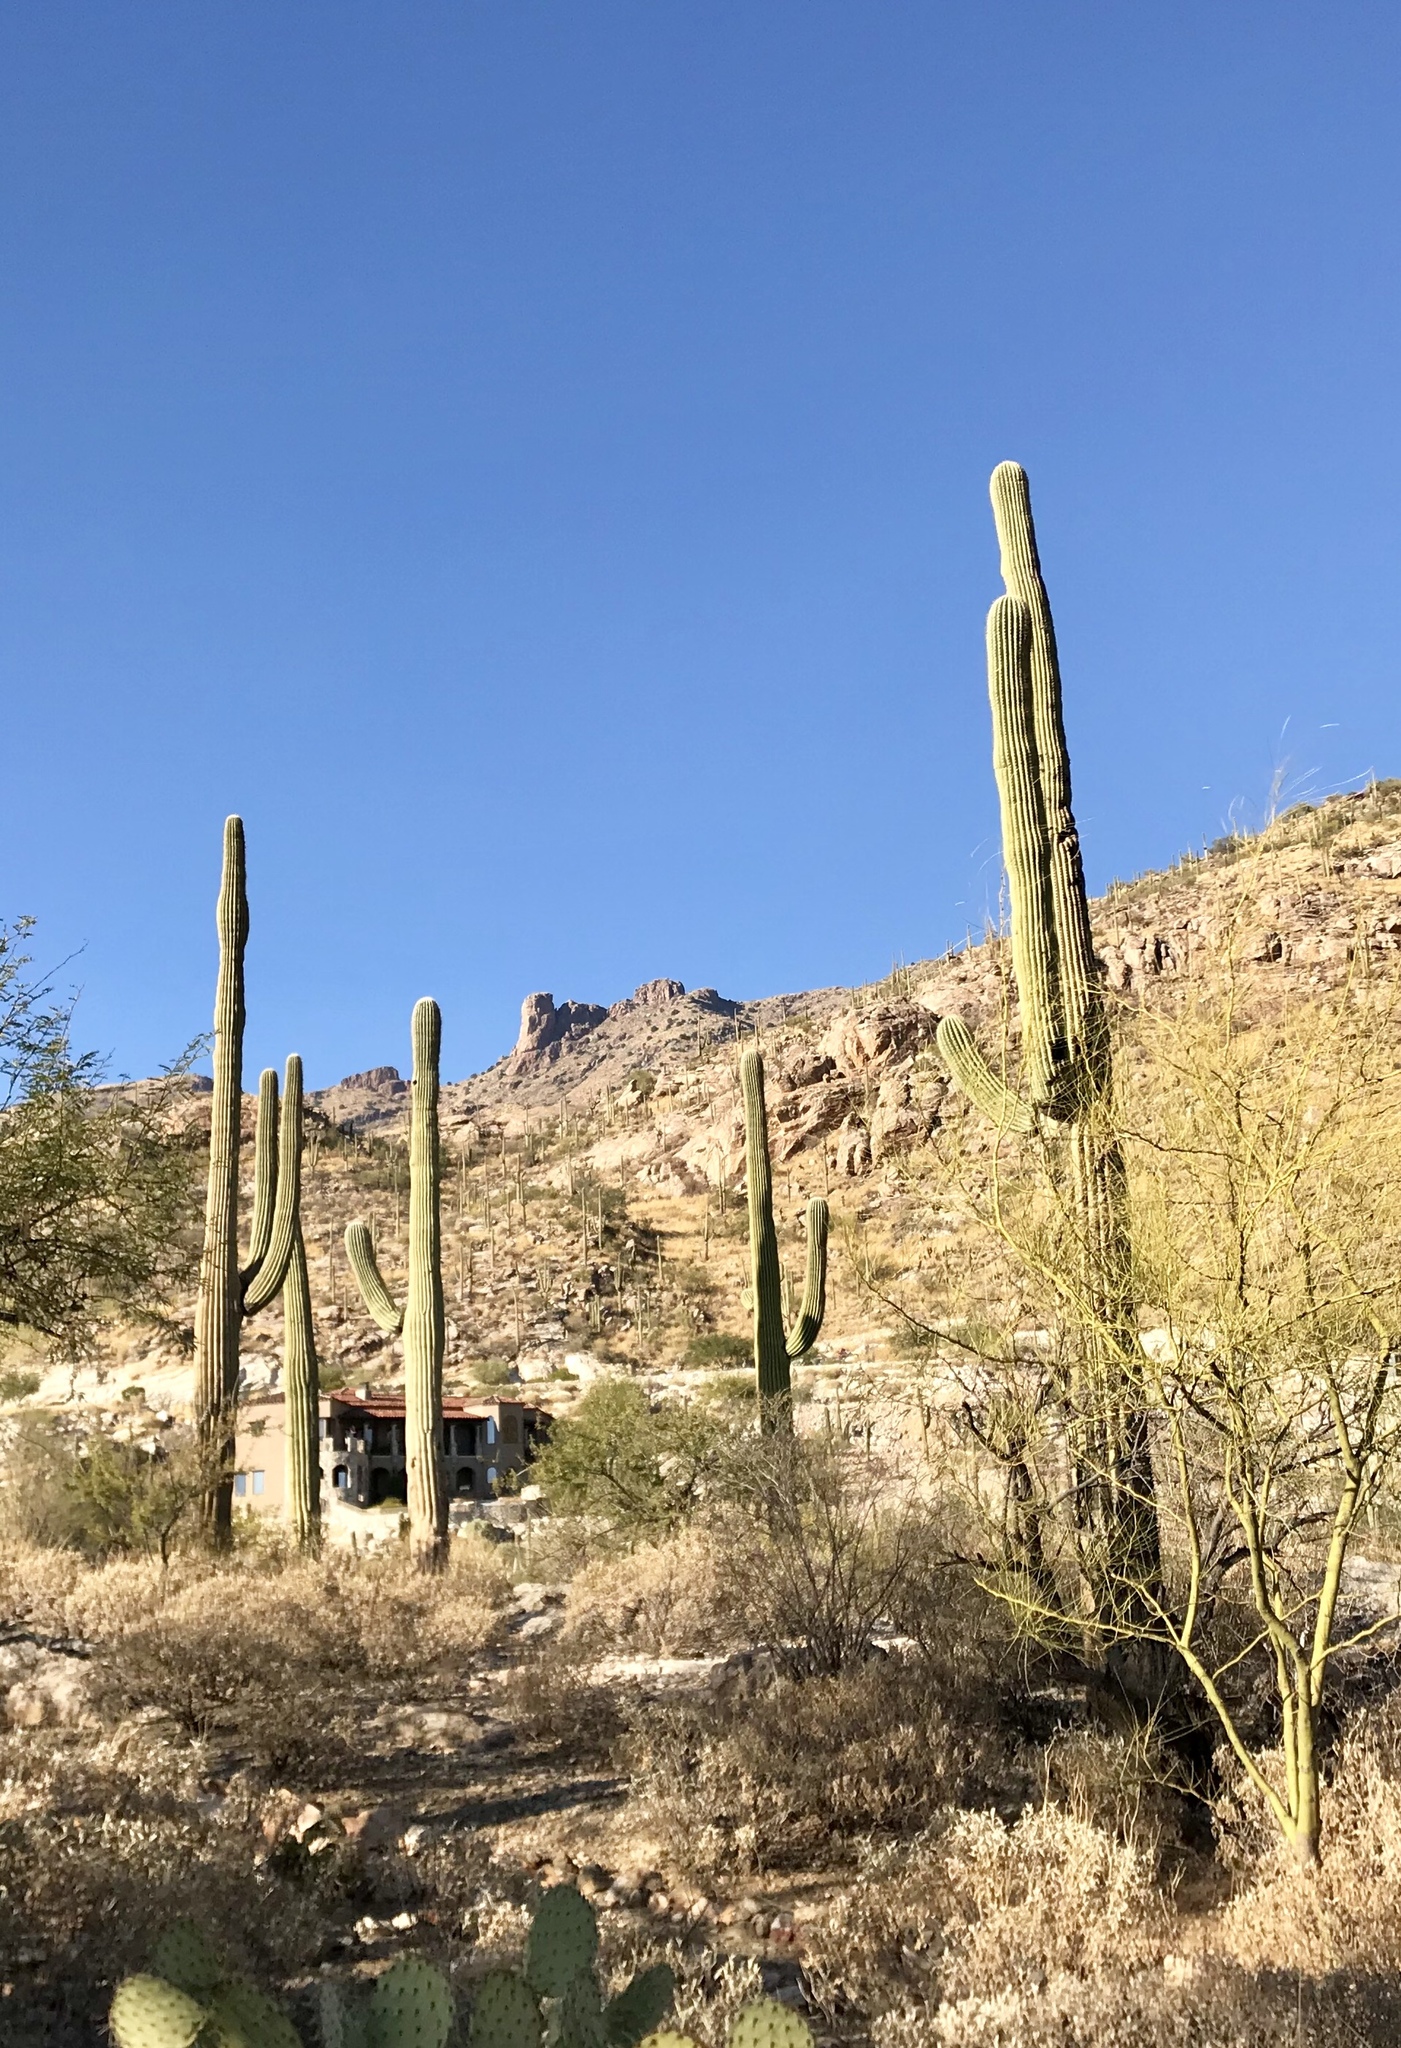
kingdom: Plantae
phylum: Tracheophyta
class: Magnoliopsida
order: Caryophyllales
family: Cactaceae
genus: Carnegiea
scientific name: Carnegiea gigantea
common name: Saguaro
